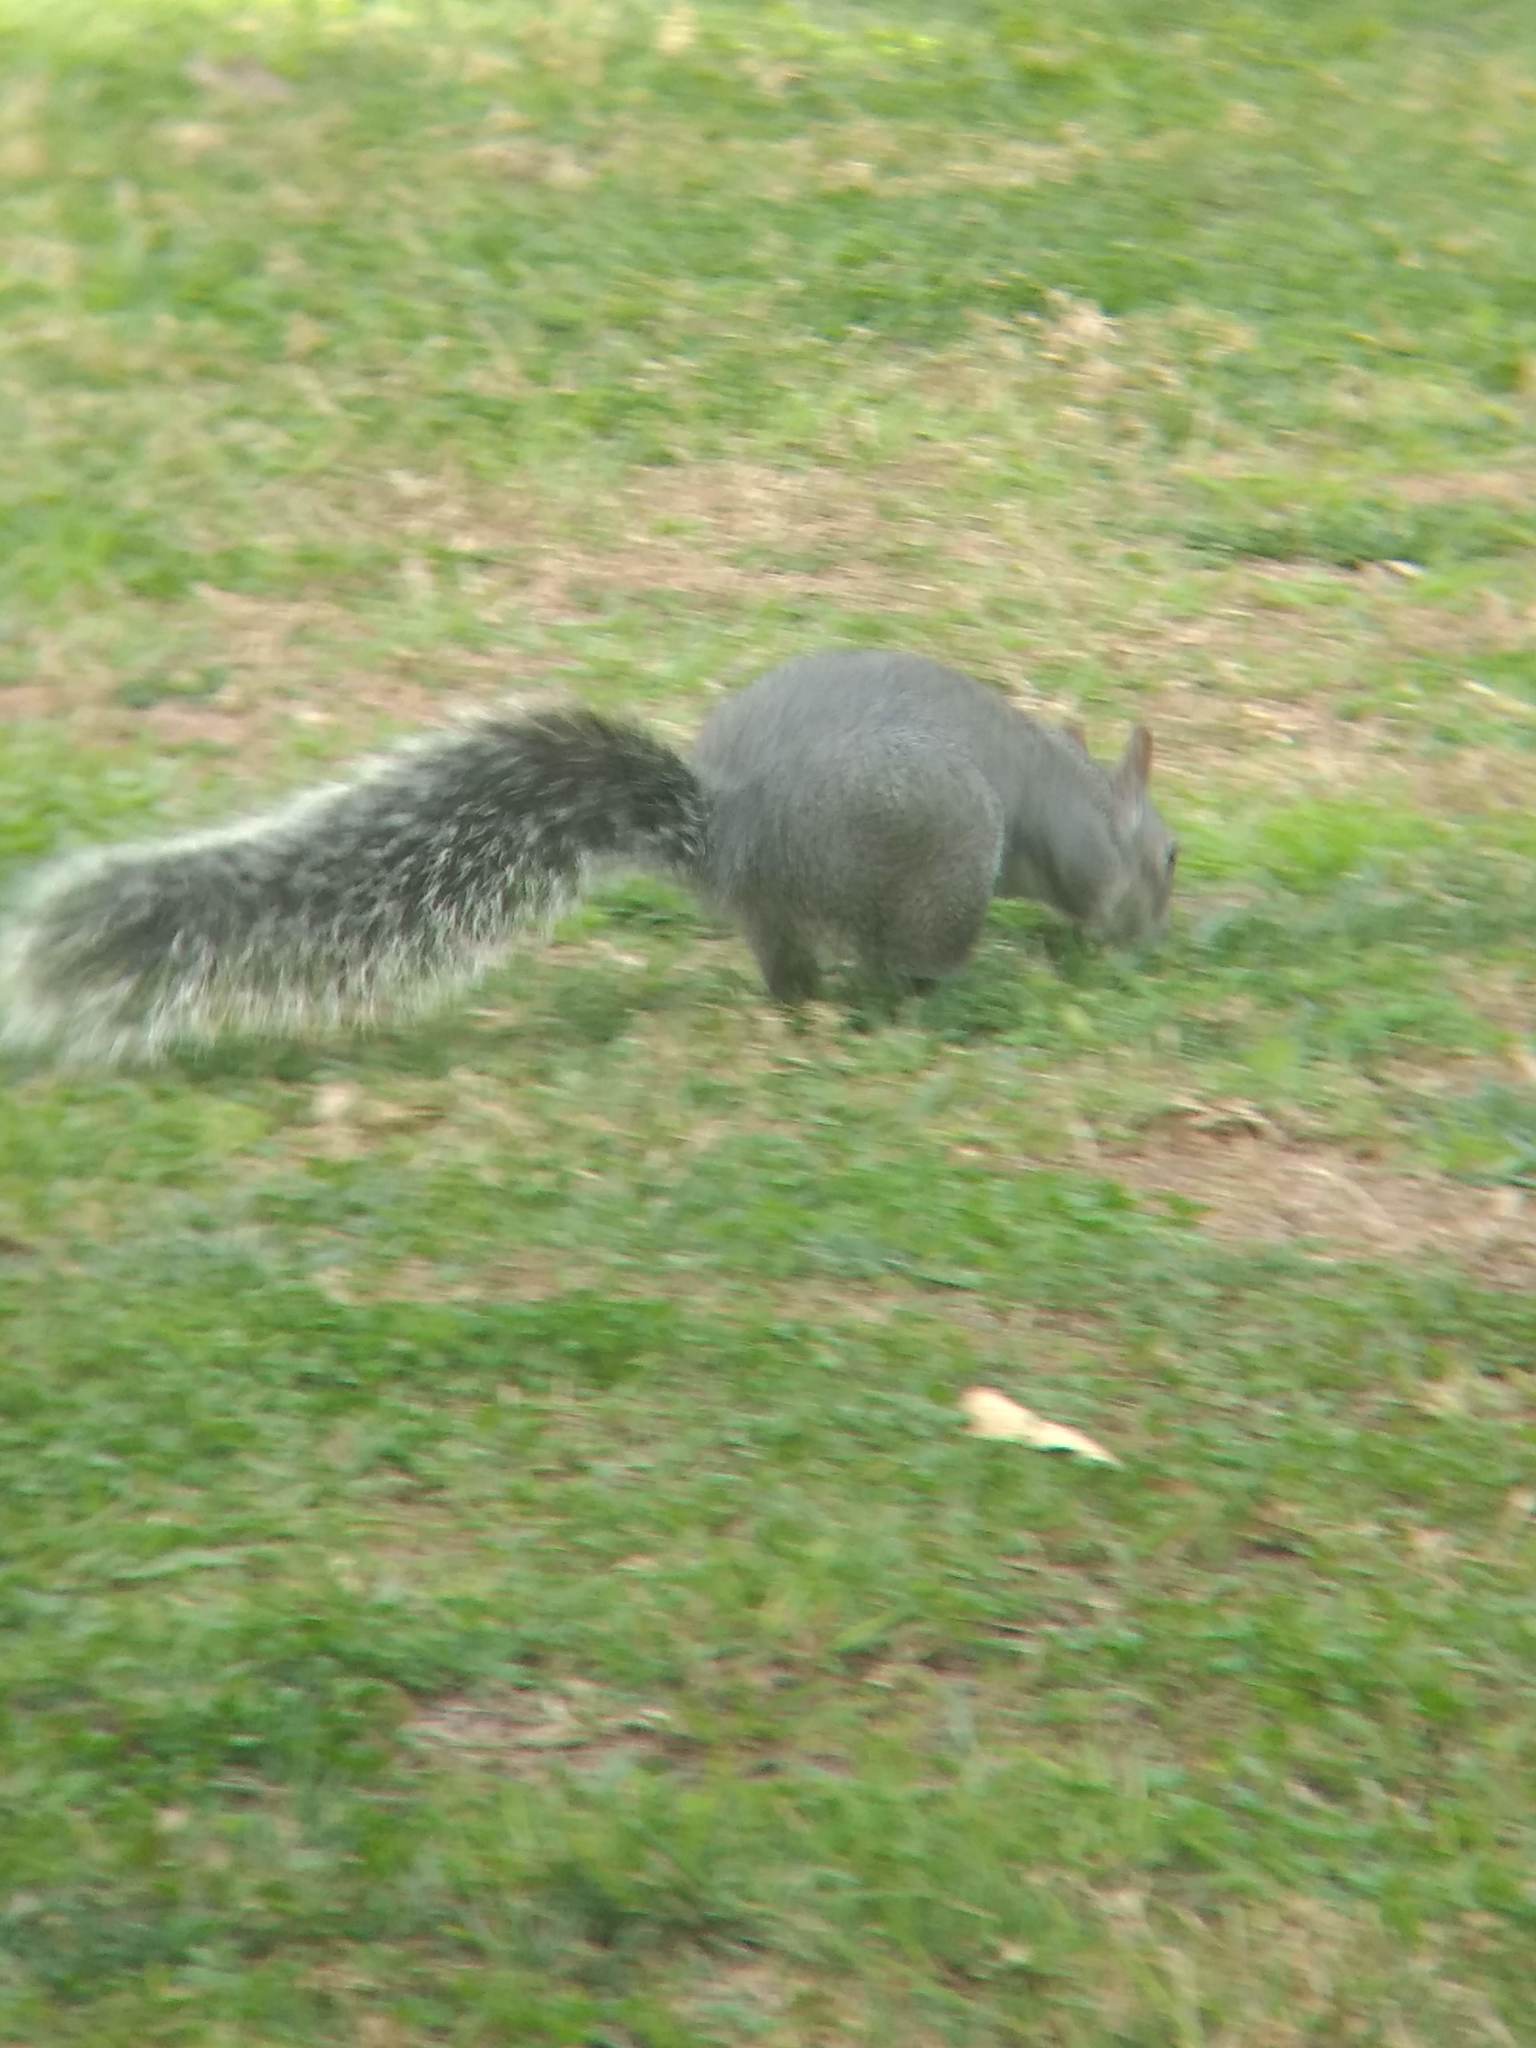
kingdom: Animalia
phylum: Chordata
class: Mammalia
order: Rodentia
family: Sciuridae
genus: Sciurus
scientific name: Sciurus griseus
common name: Western gray squirrel
